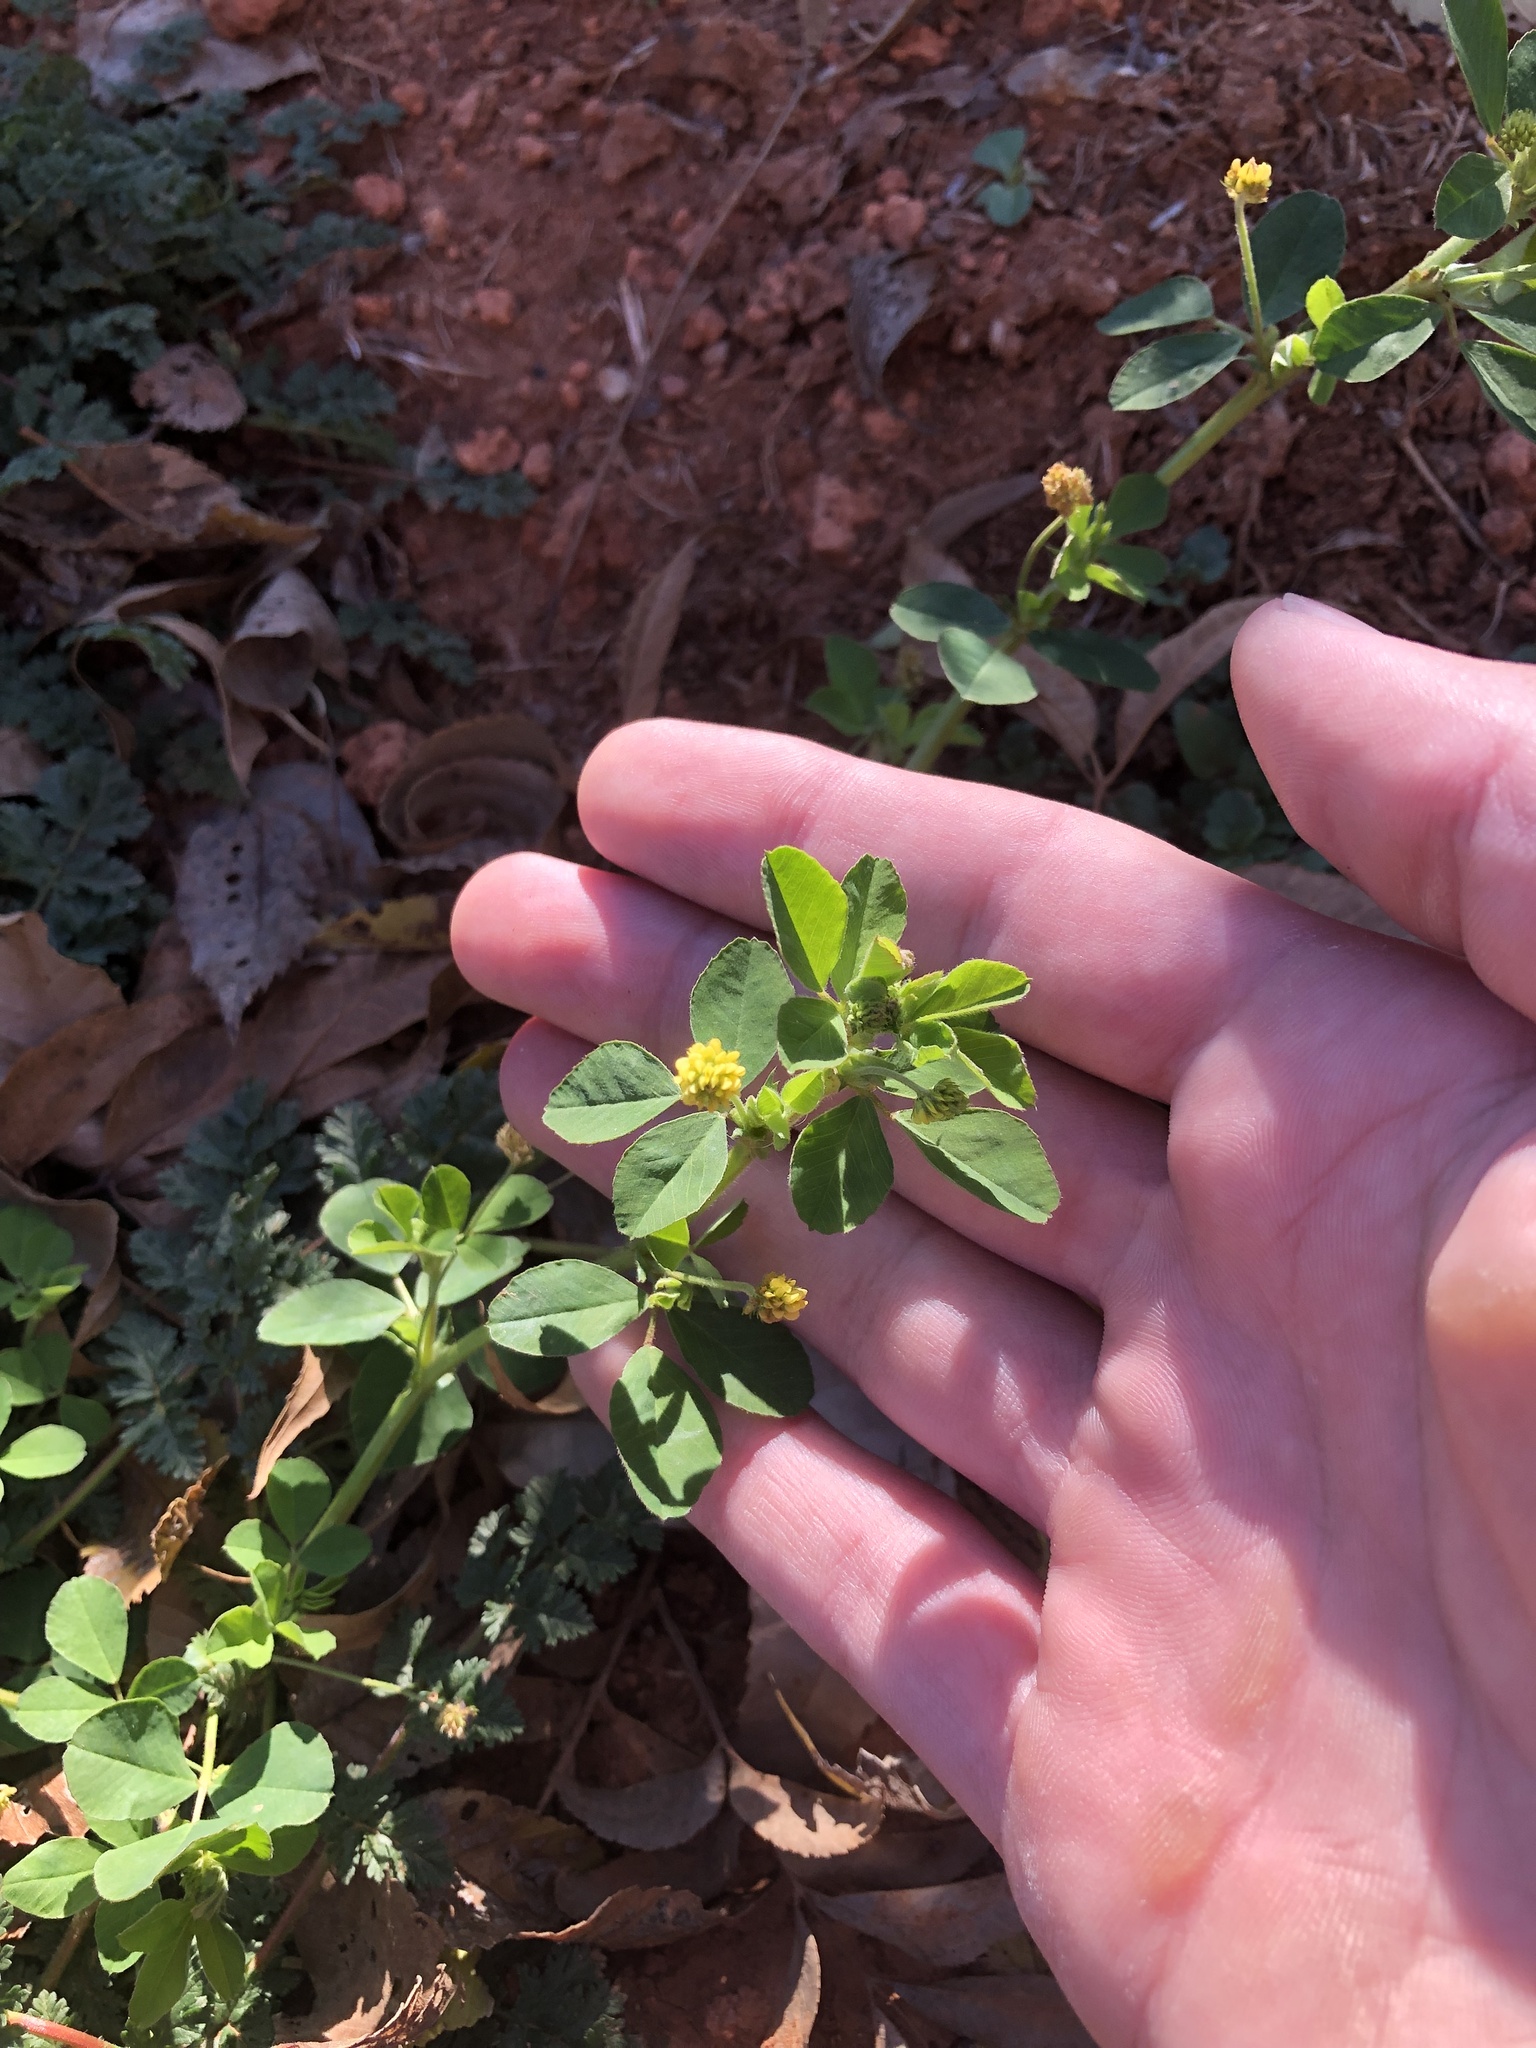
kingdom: Plantae
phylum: Tracheophyta
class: Magnoliopsida
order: Fabales
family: Fabaceae
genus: Medicago
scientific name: Medicago lupulina
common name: Black medick
